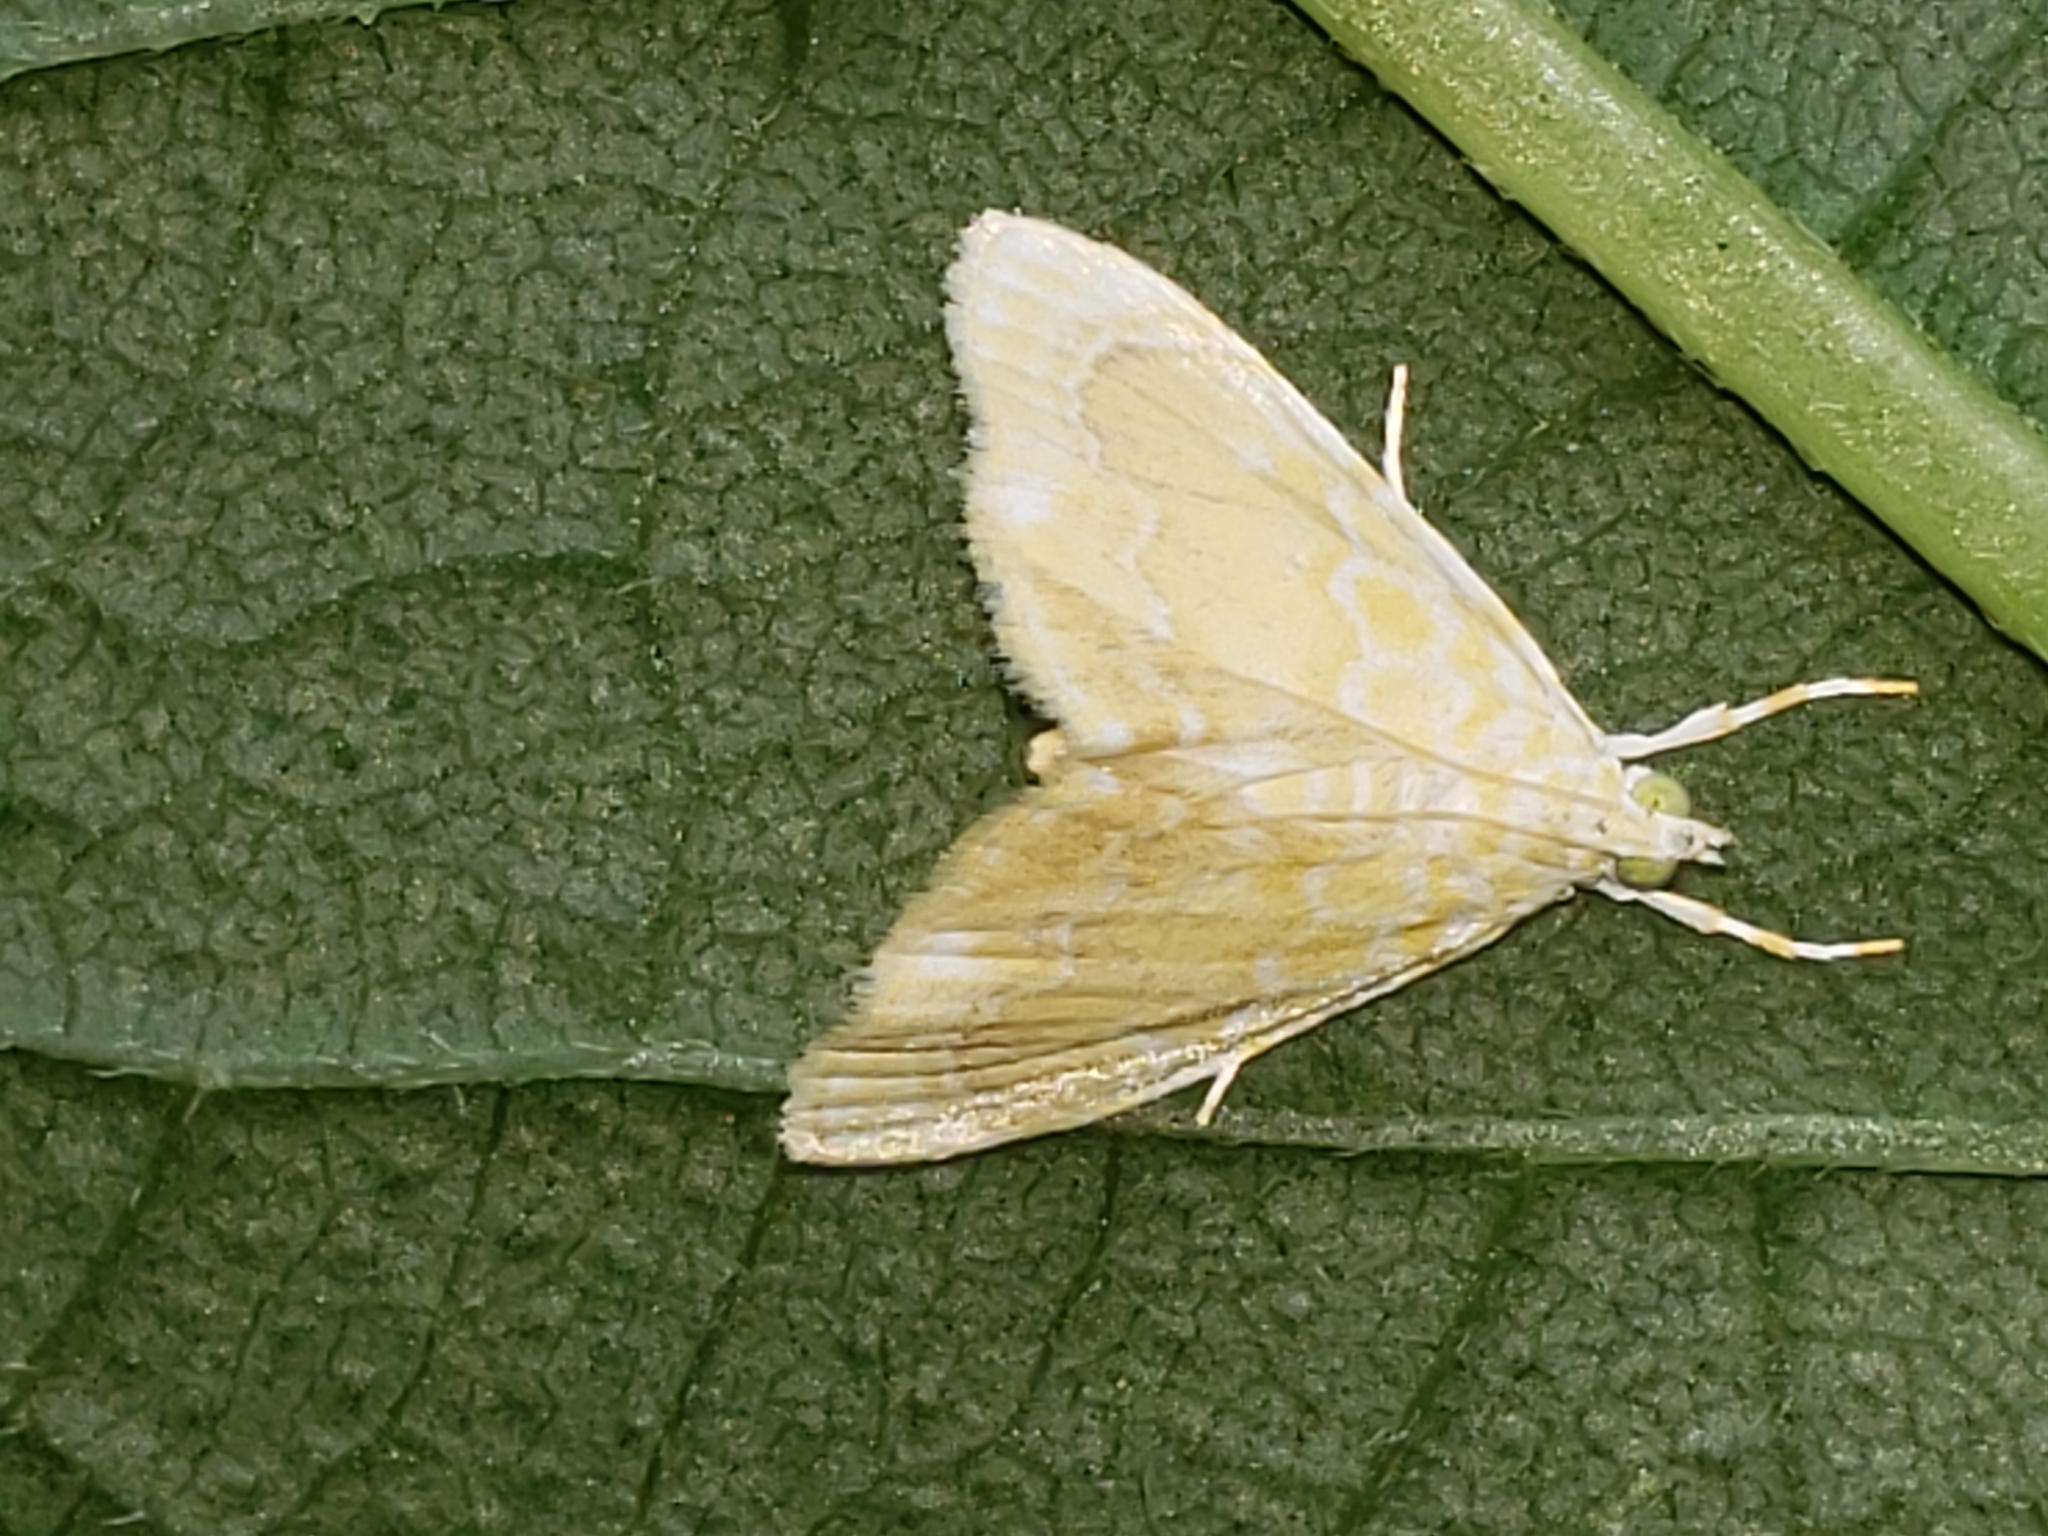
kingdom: Animalia
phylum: Arthropoda
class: Insecta
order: Lepidoptera
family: Crambidae
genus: Glaphyria
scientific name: Glaphyria glaphyralis
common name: Common glaphyria moth
